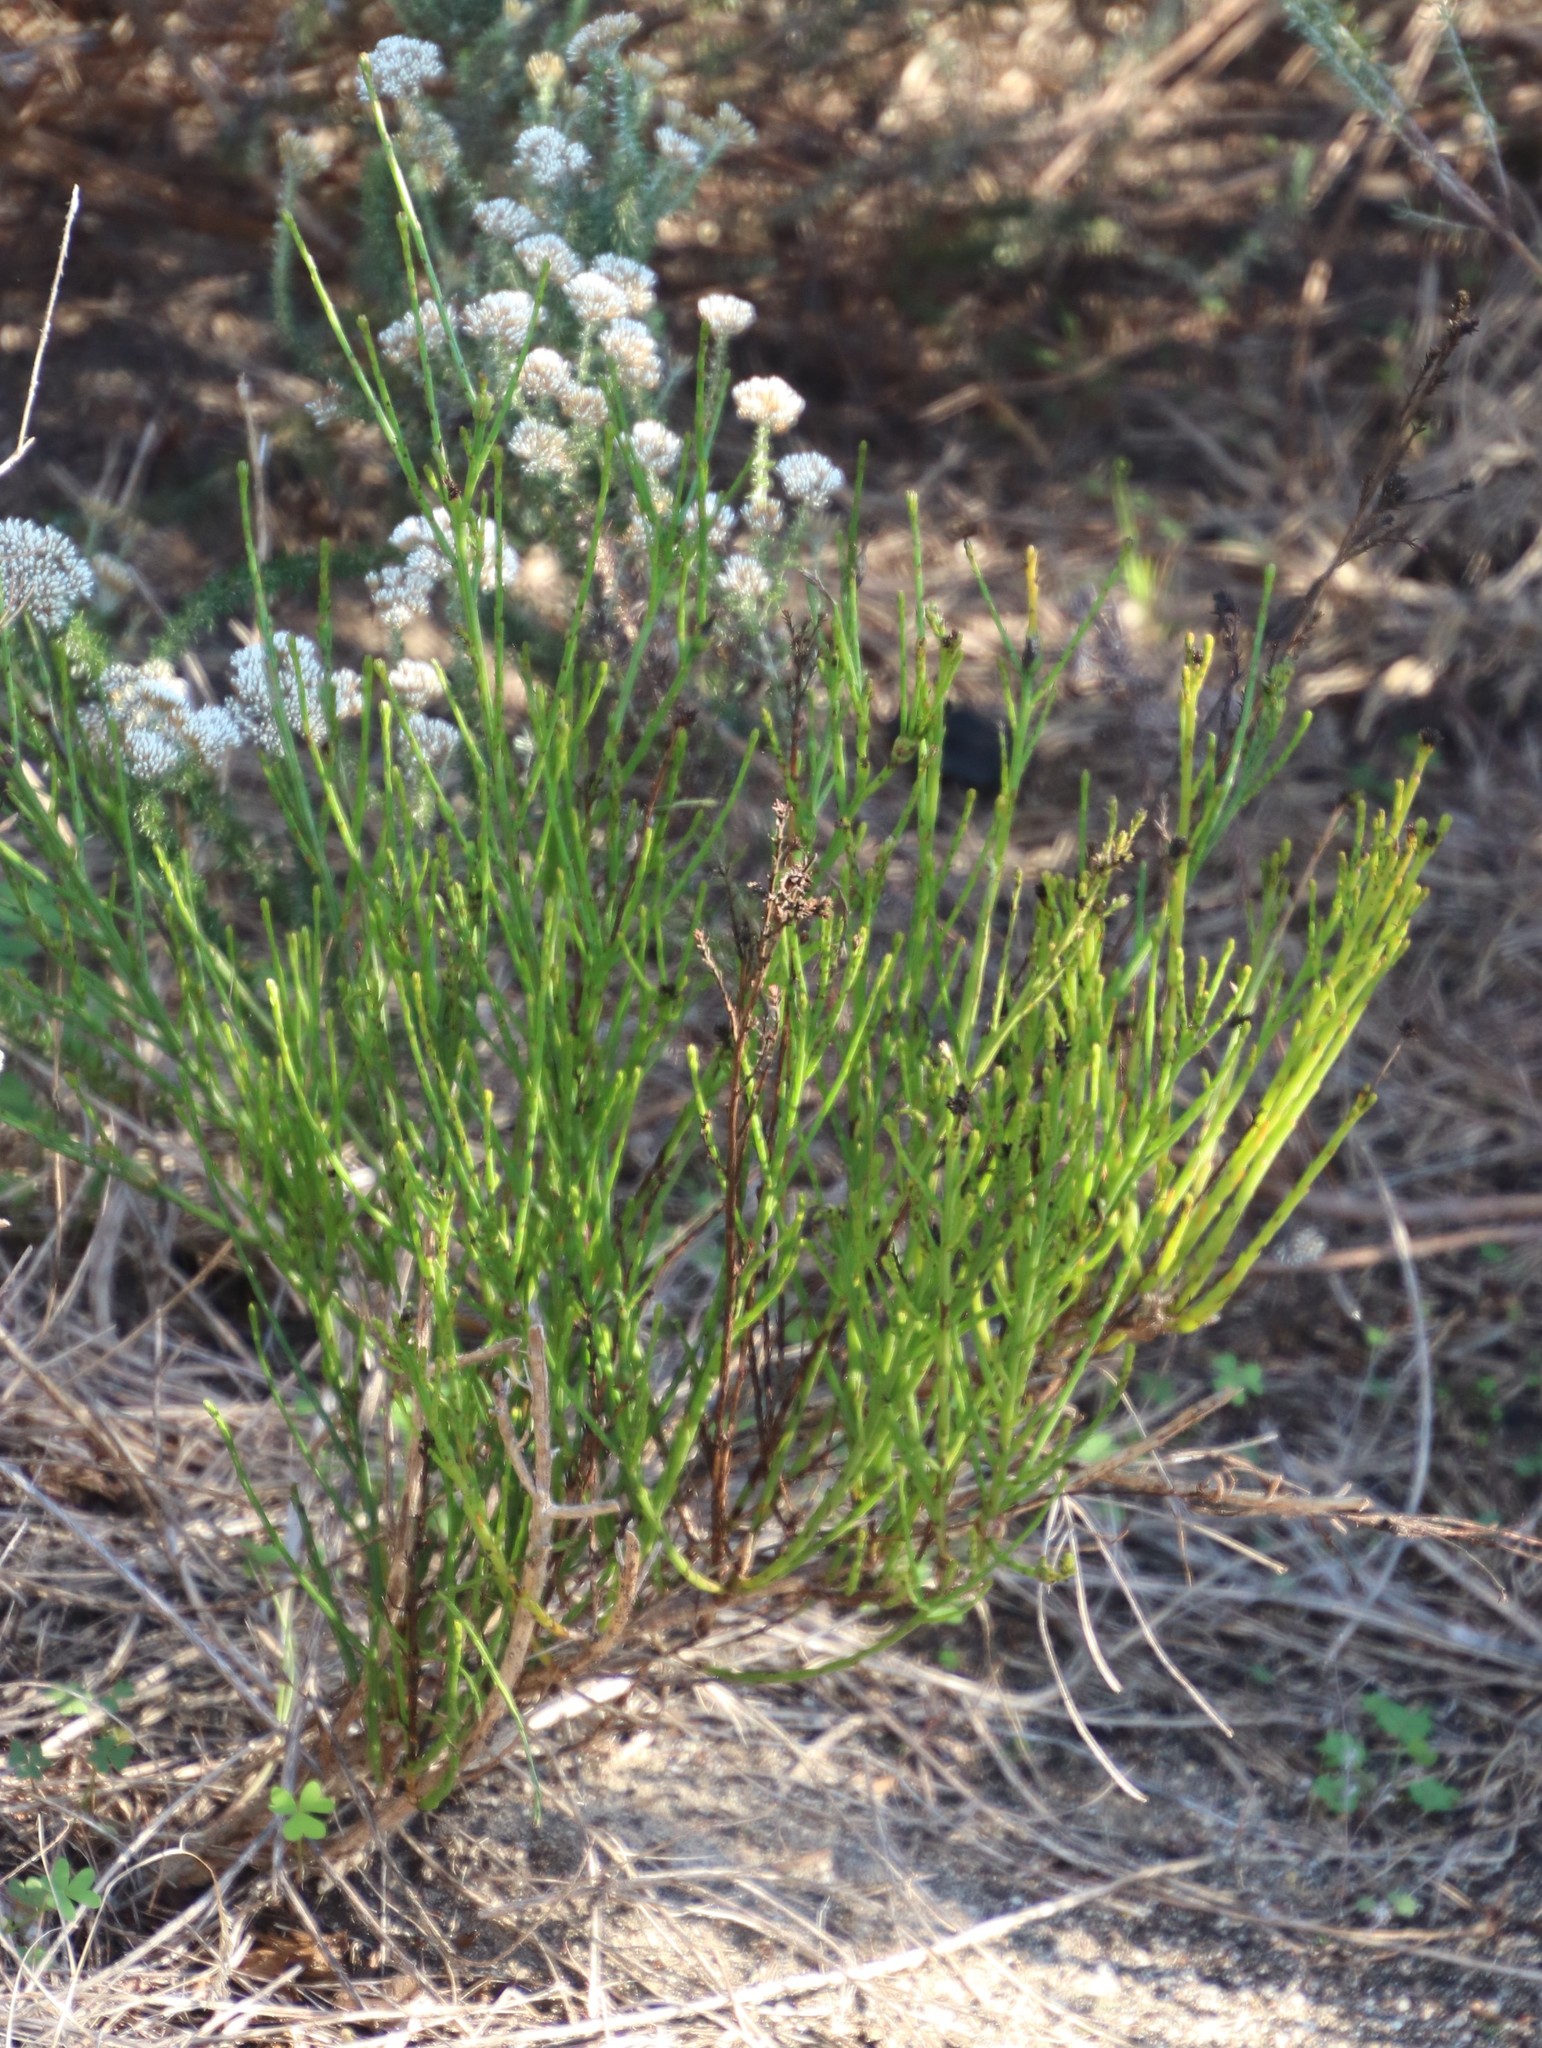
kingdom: Plantae
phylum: Tracheophyta
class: Magnoliopsida
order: Santalales
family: Thesiaceae
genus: Thesium
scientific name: Thesium virgatum
